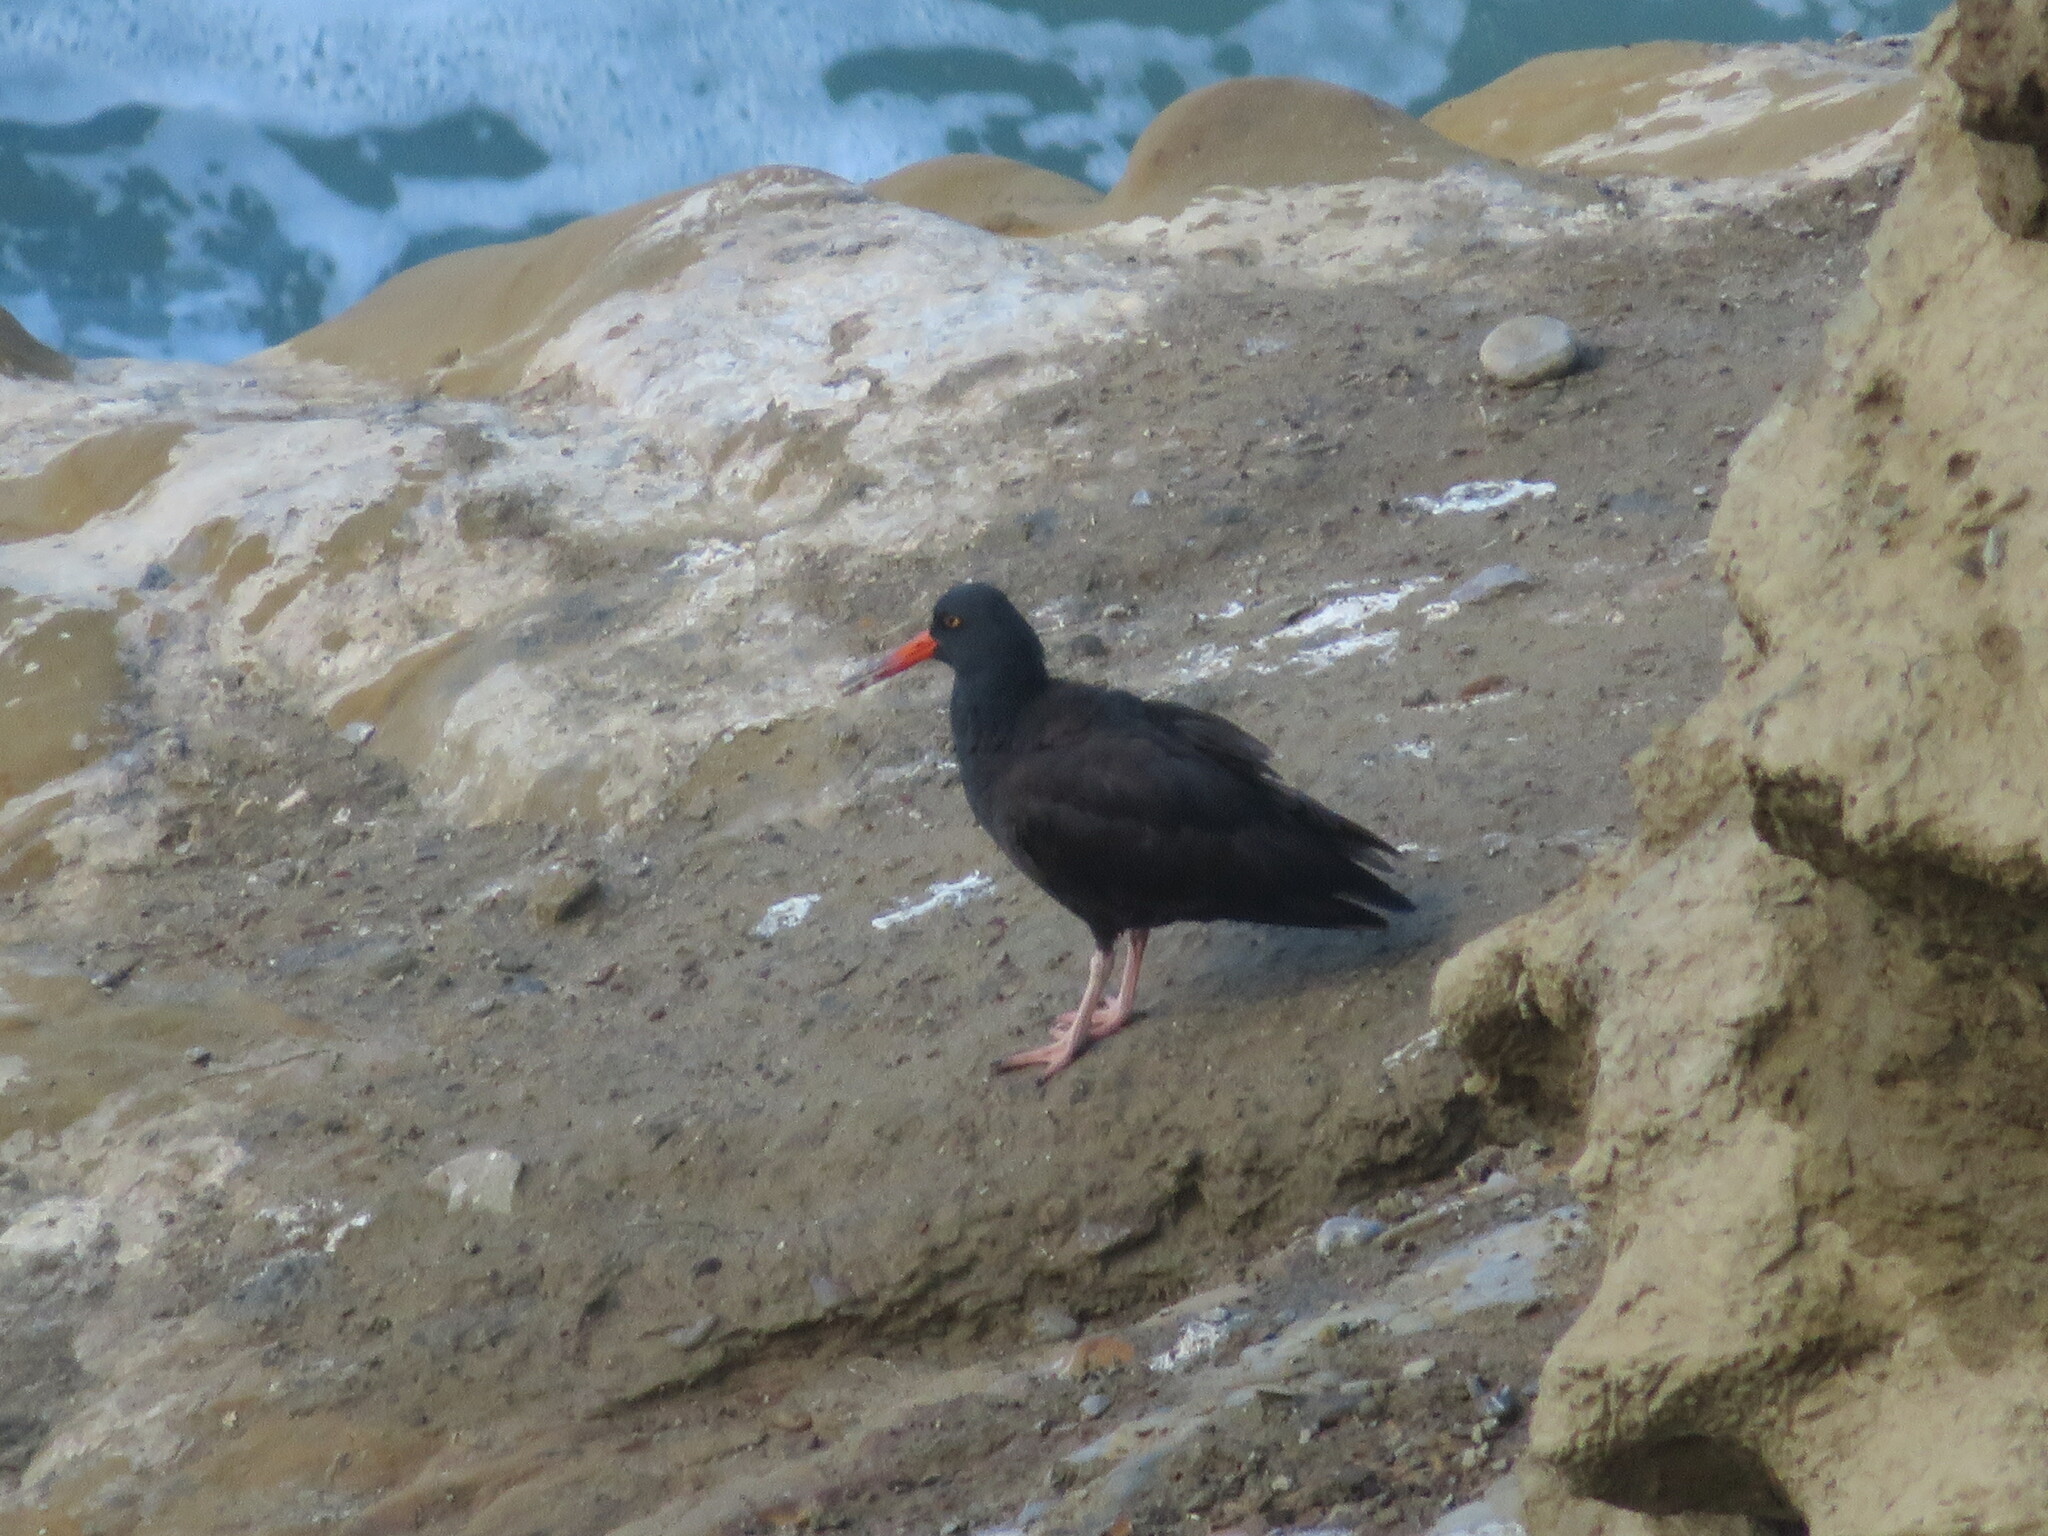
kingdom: Animalia
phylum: Chordata
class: Aves
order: Charadriiformes
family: Haematopodidae
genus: Haematopus
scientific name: Haematopus bachmani
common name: Black oystercatcher
